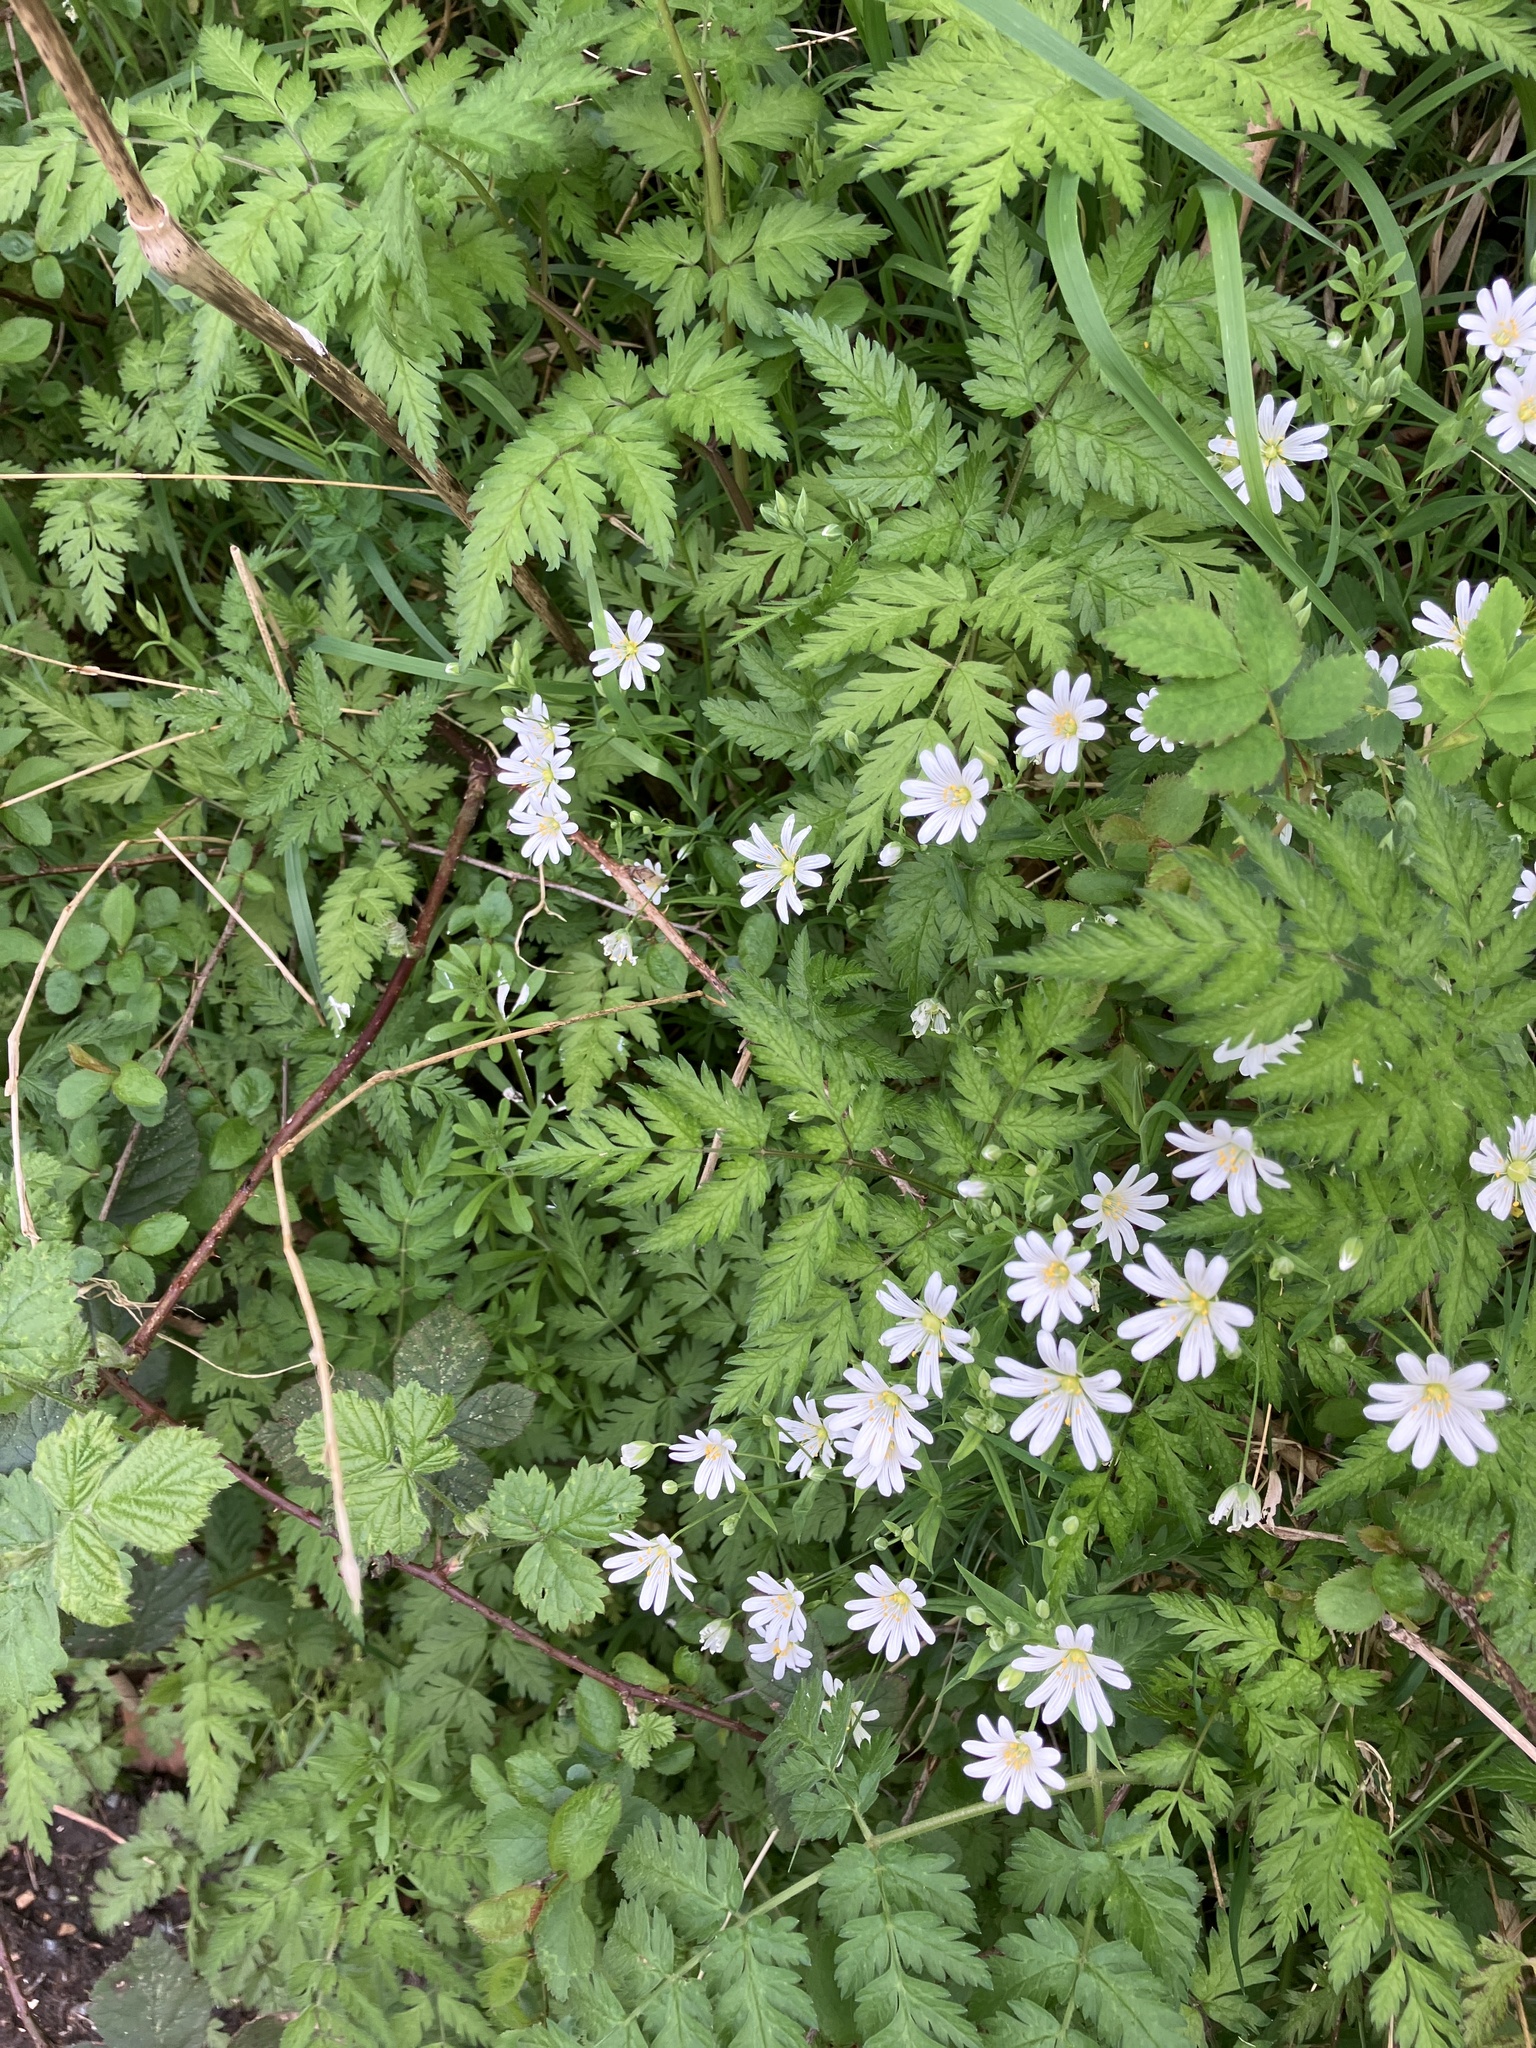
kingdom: Plantae
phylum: Tracheophyta
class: Magnoliopsida
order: Caryophyllales
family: Caryophyllaceae
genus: Rabelera
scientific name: Rabelera holostea
